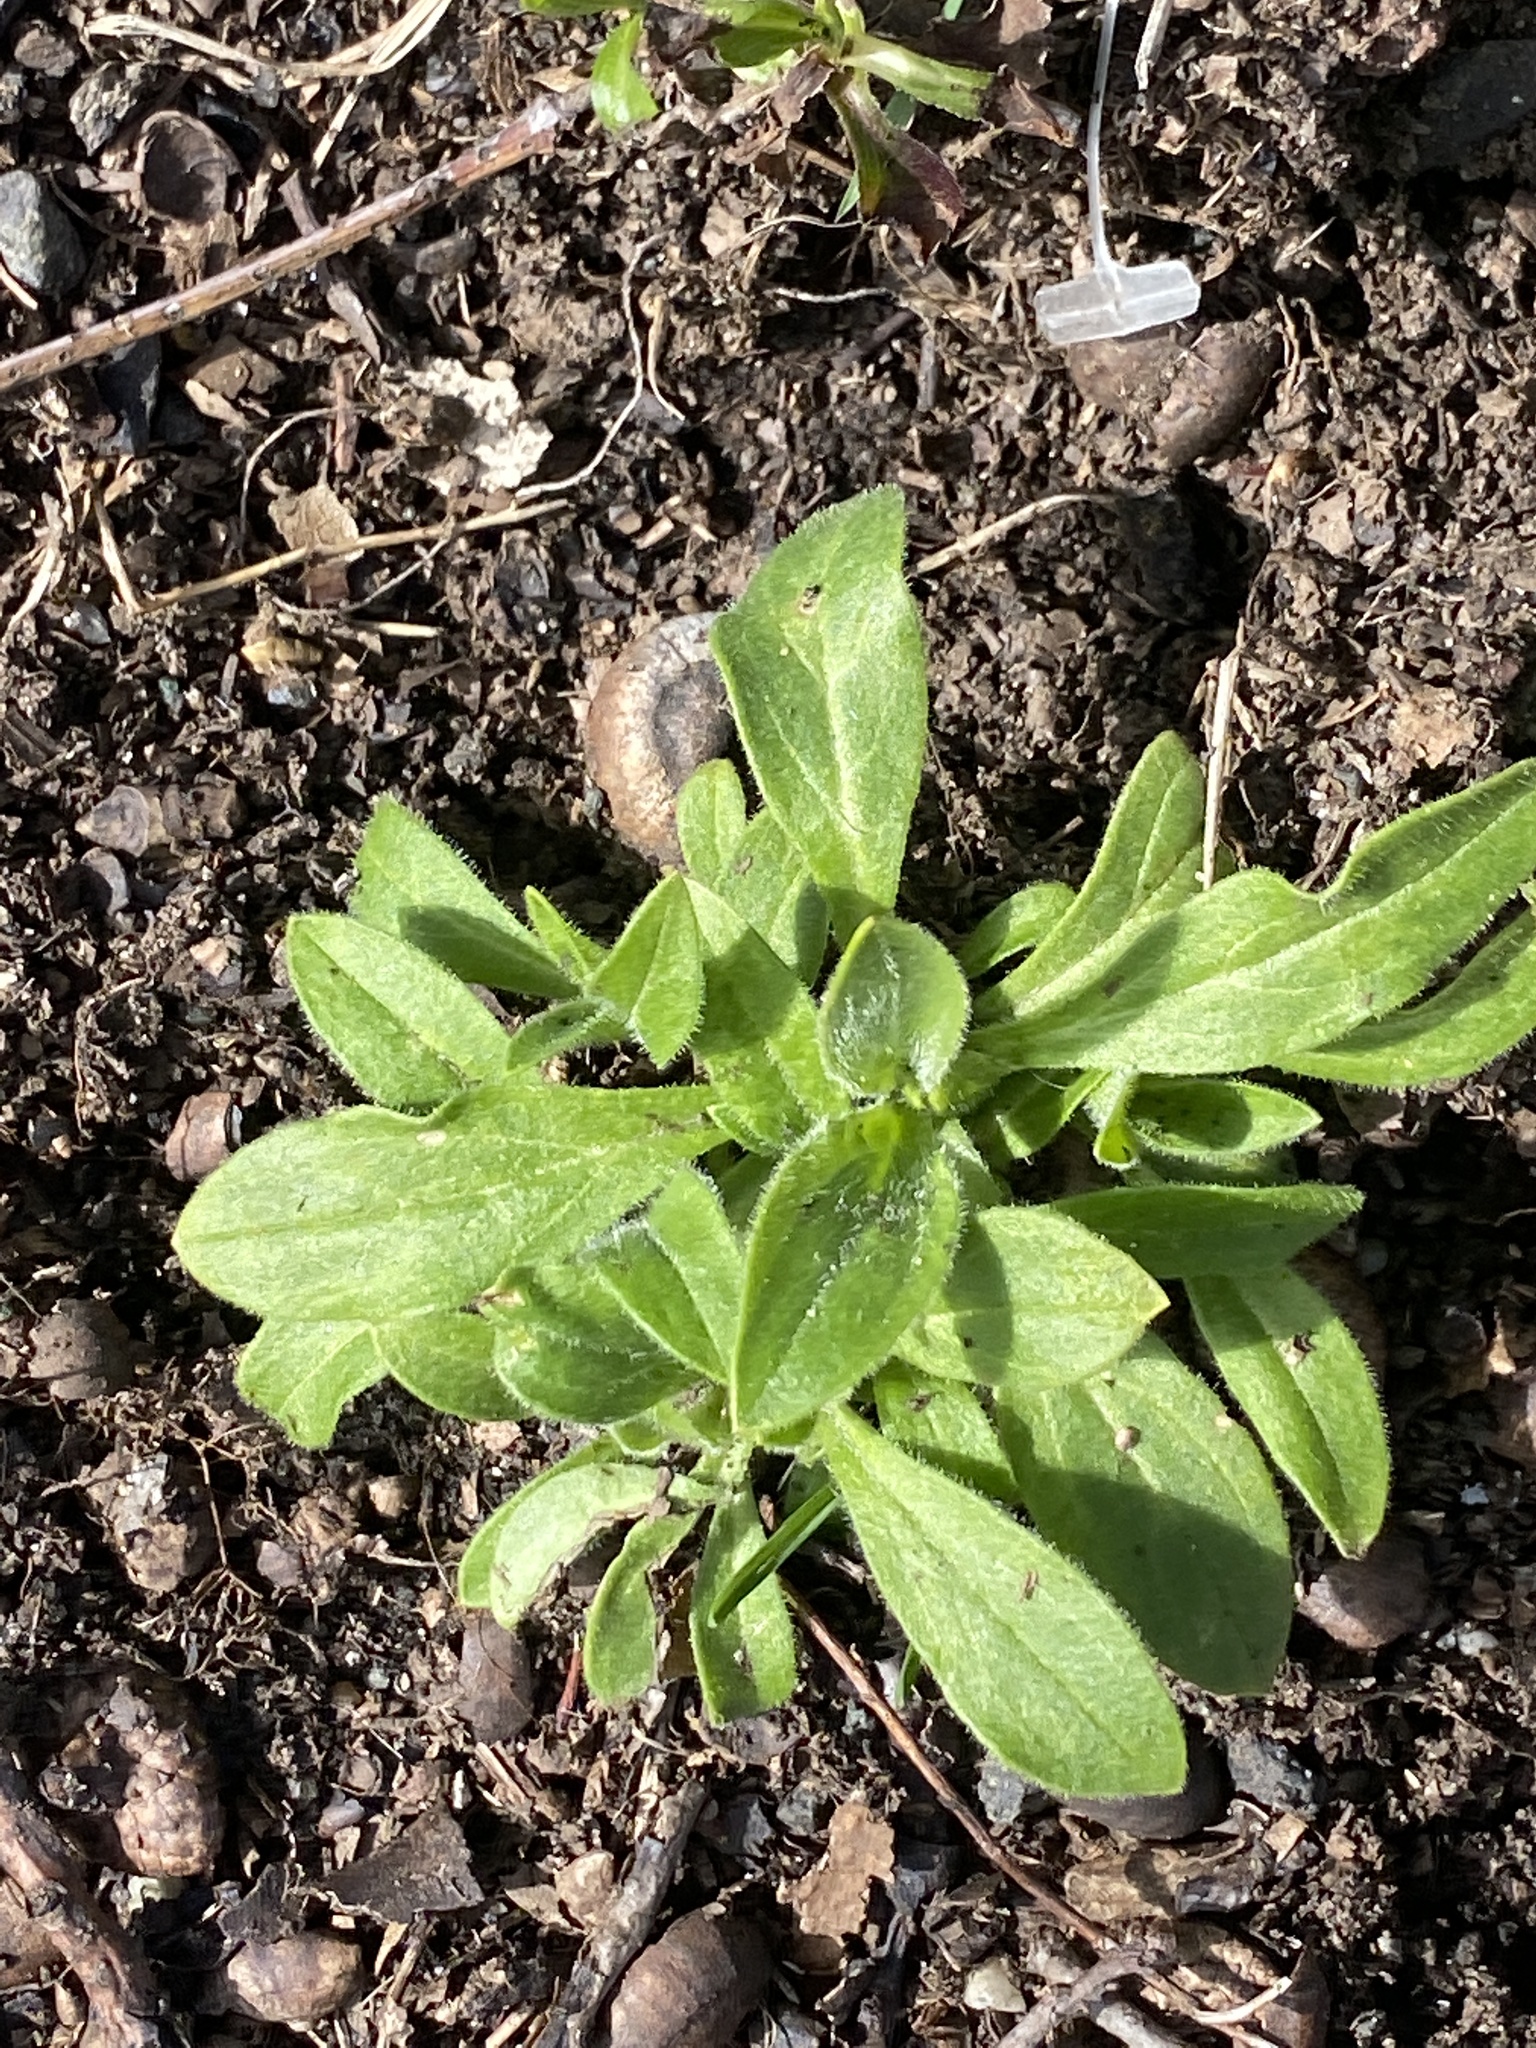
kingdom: Plantae
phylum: Tracheophyta
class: Magnoliopsida
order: Caryophyllales
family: Caryophyllaceae
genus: Silene
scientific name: Silene latifolia
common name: White campion
